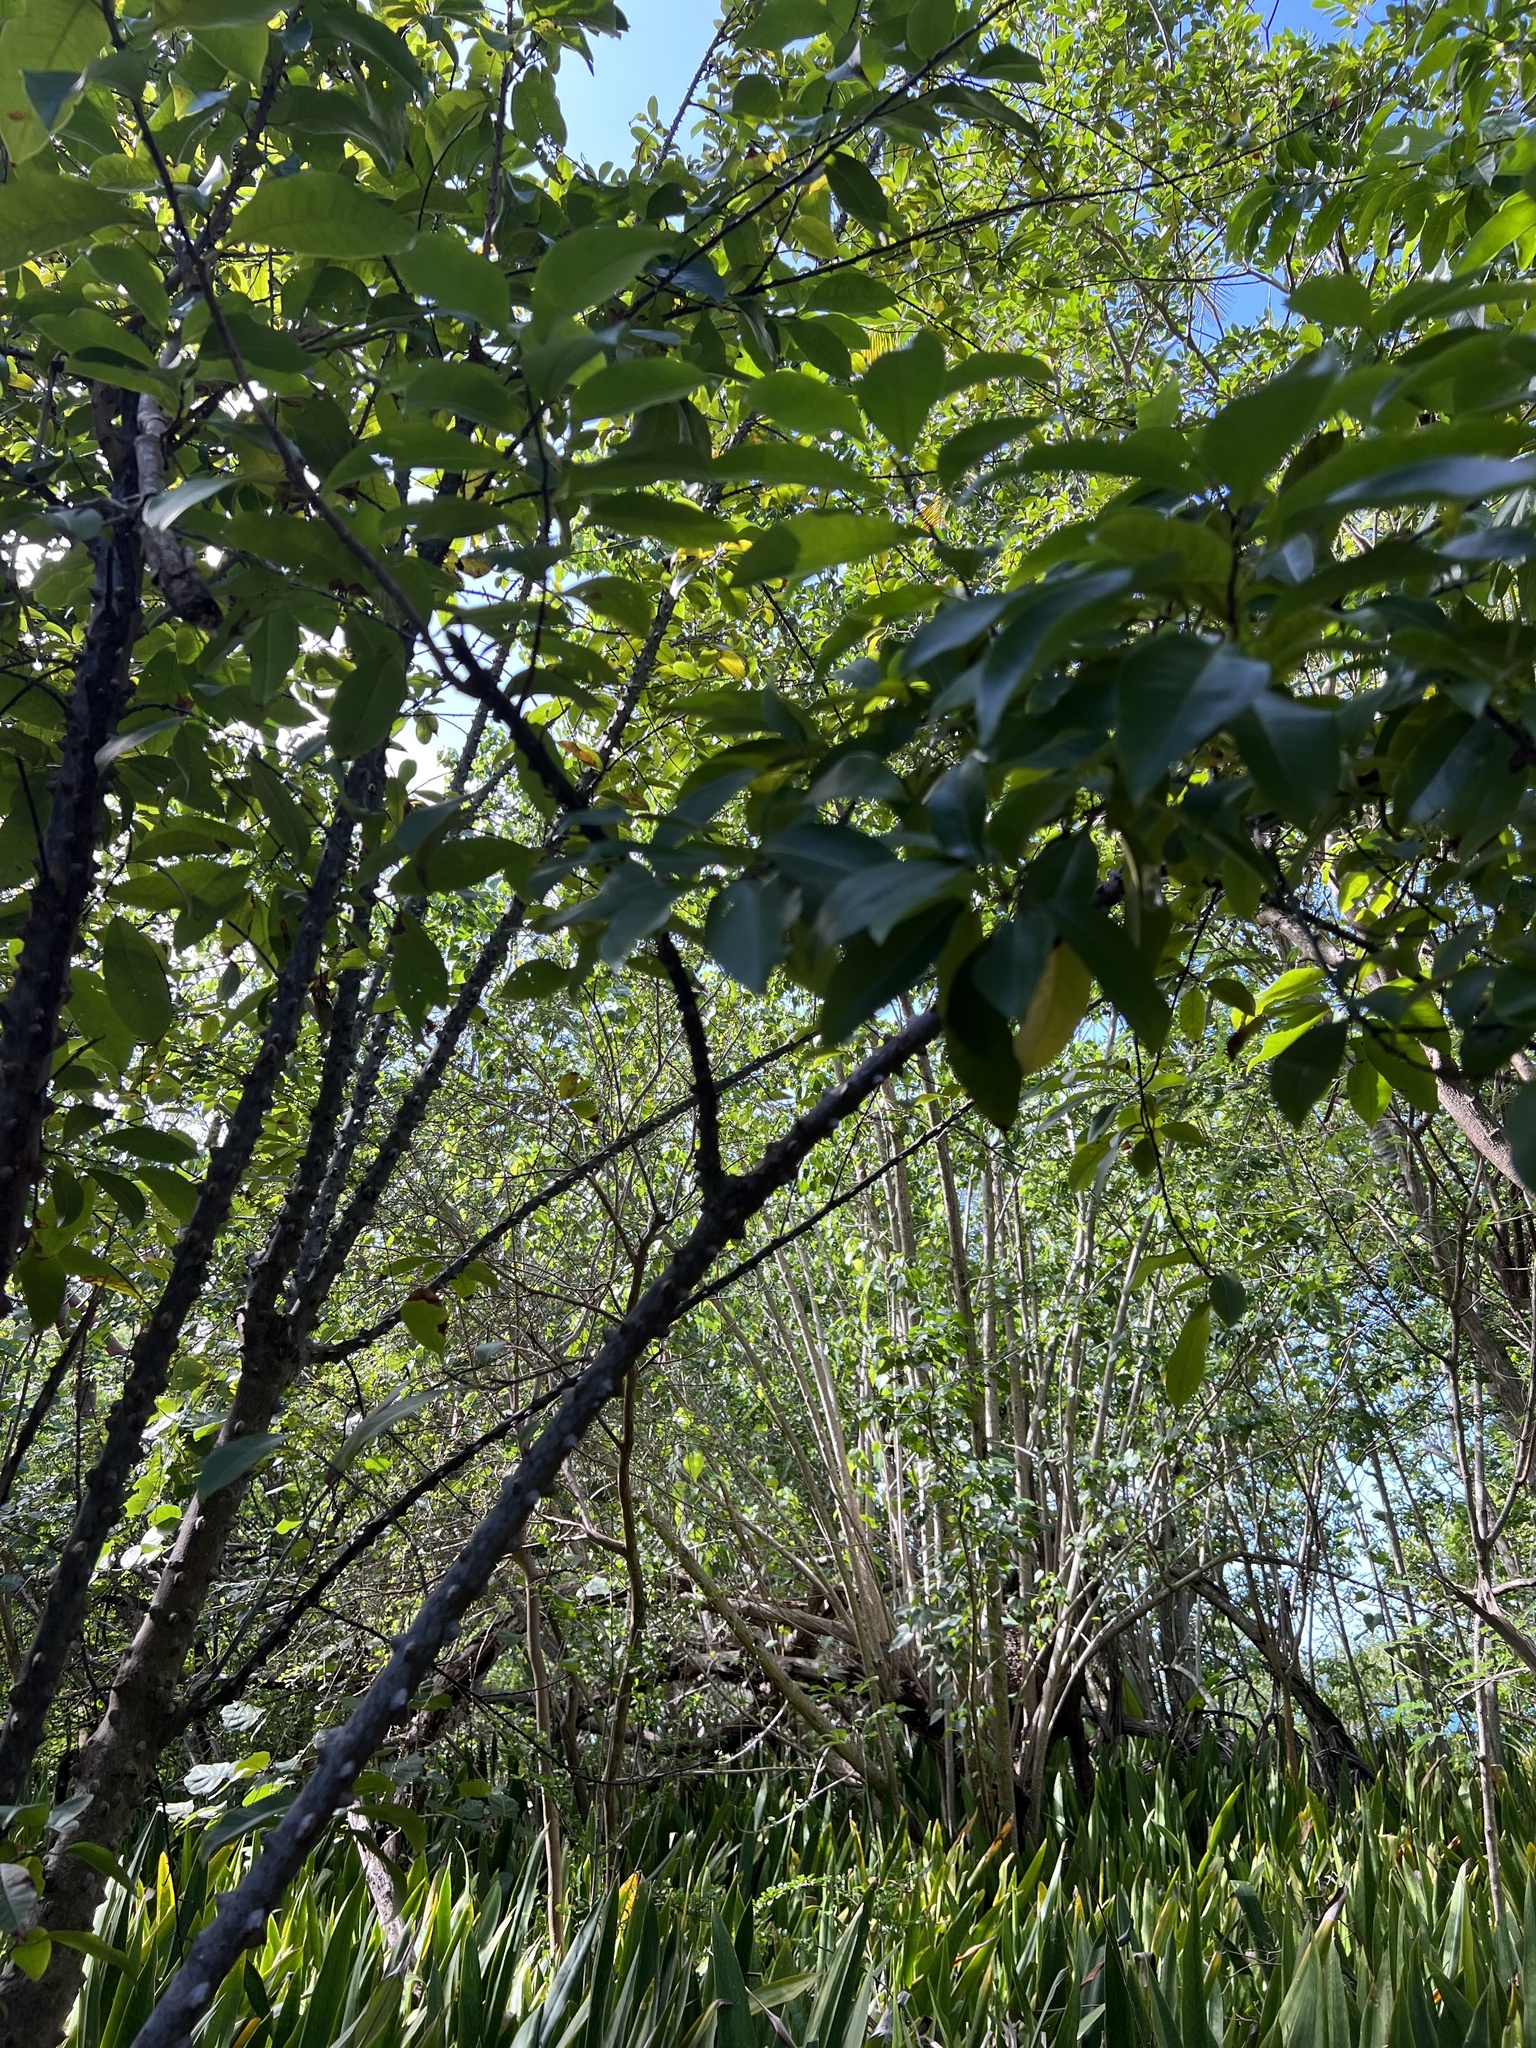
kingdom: Plantae
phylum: Tracheophyta
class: Magnoliopsida
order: Sapindales
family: Rutaceae
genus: Zanthoxylum
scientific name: Zanthoxylum schreberi
